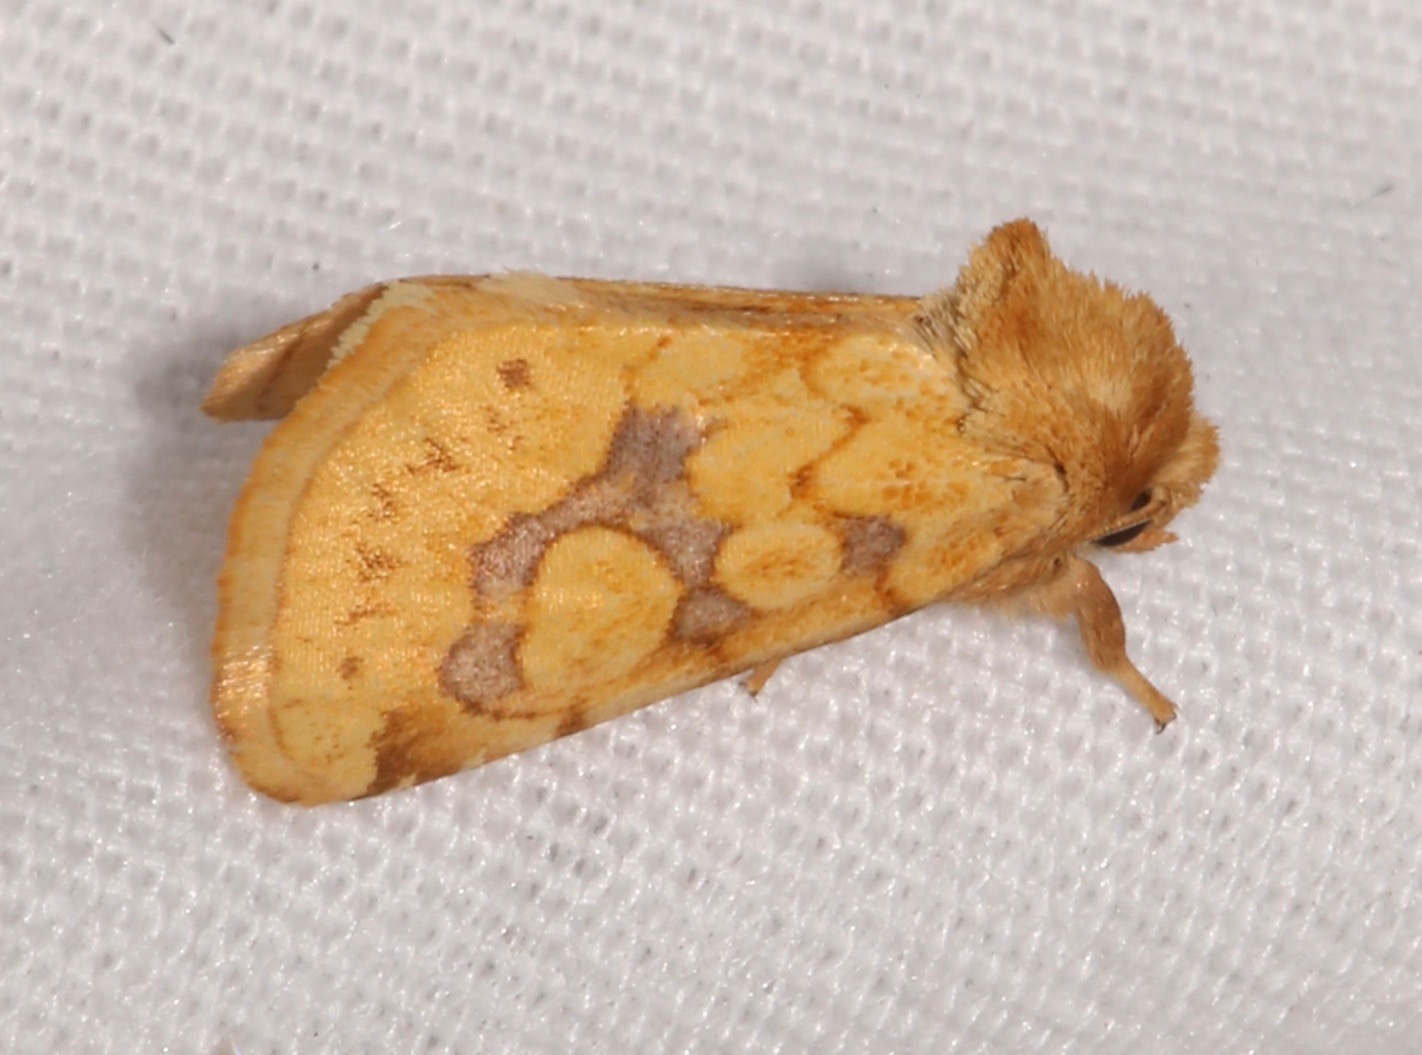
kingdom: Animalia
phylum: Arthropoda
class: Insecta
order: Lepidoptera
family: Noctuidae
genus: Nocloa
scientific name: Nocloa cordova
